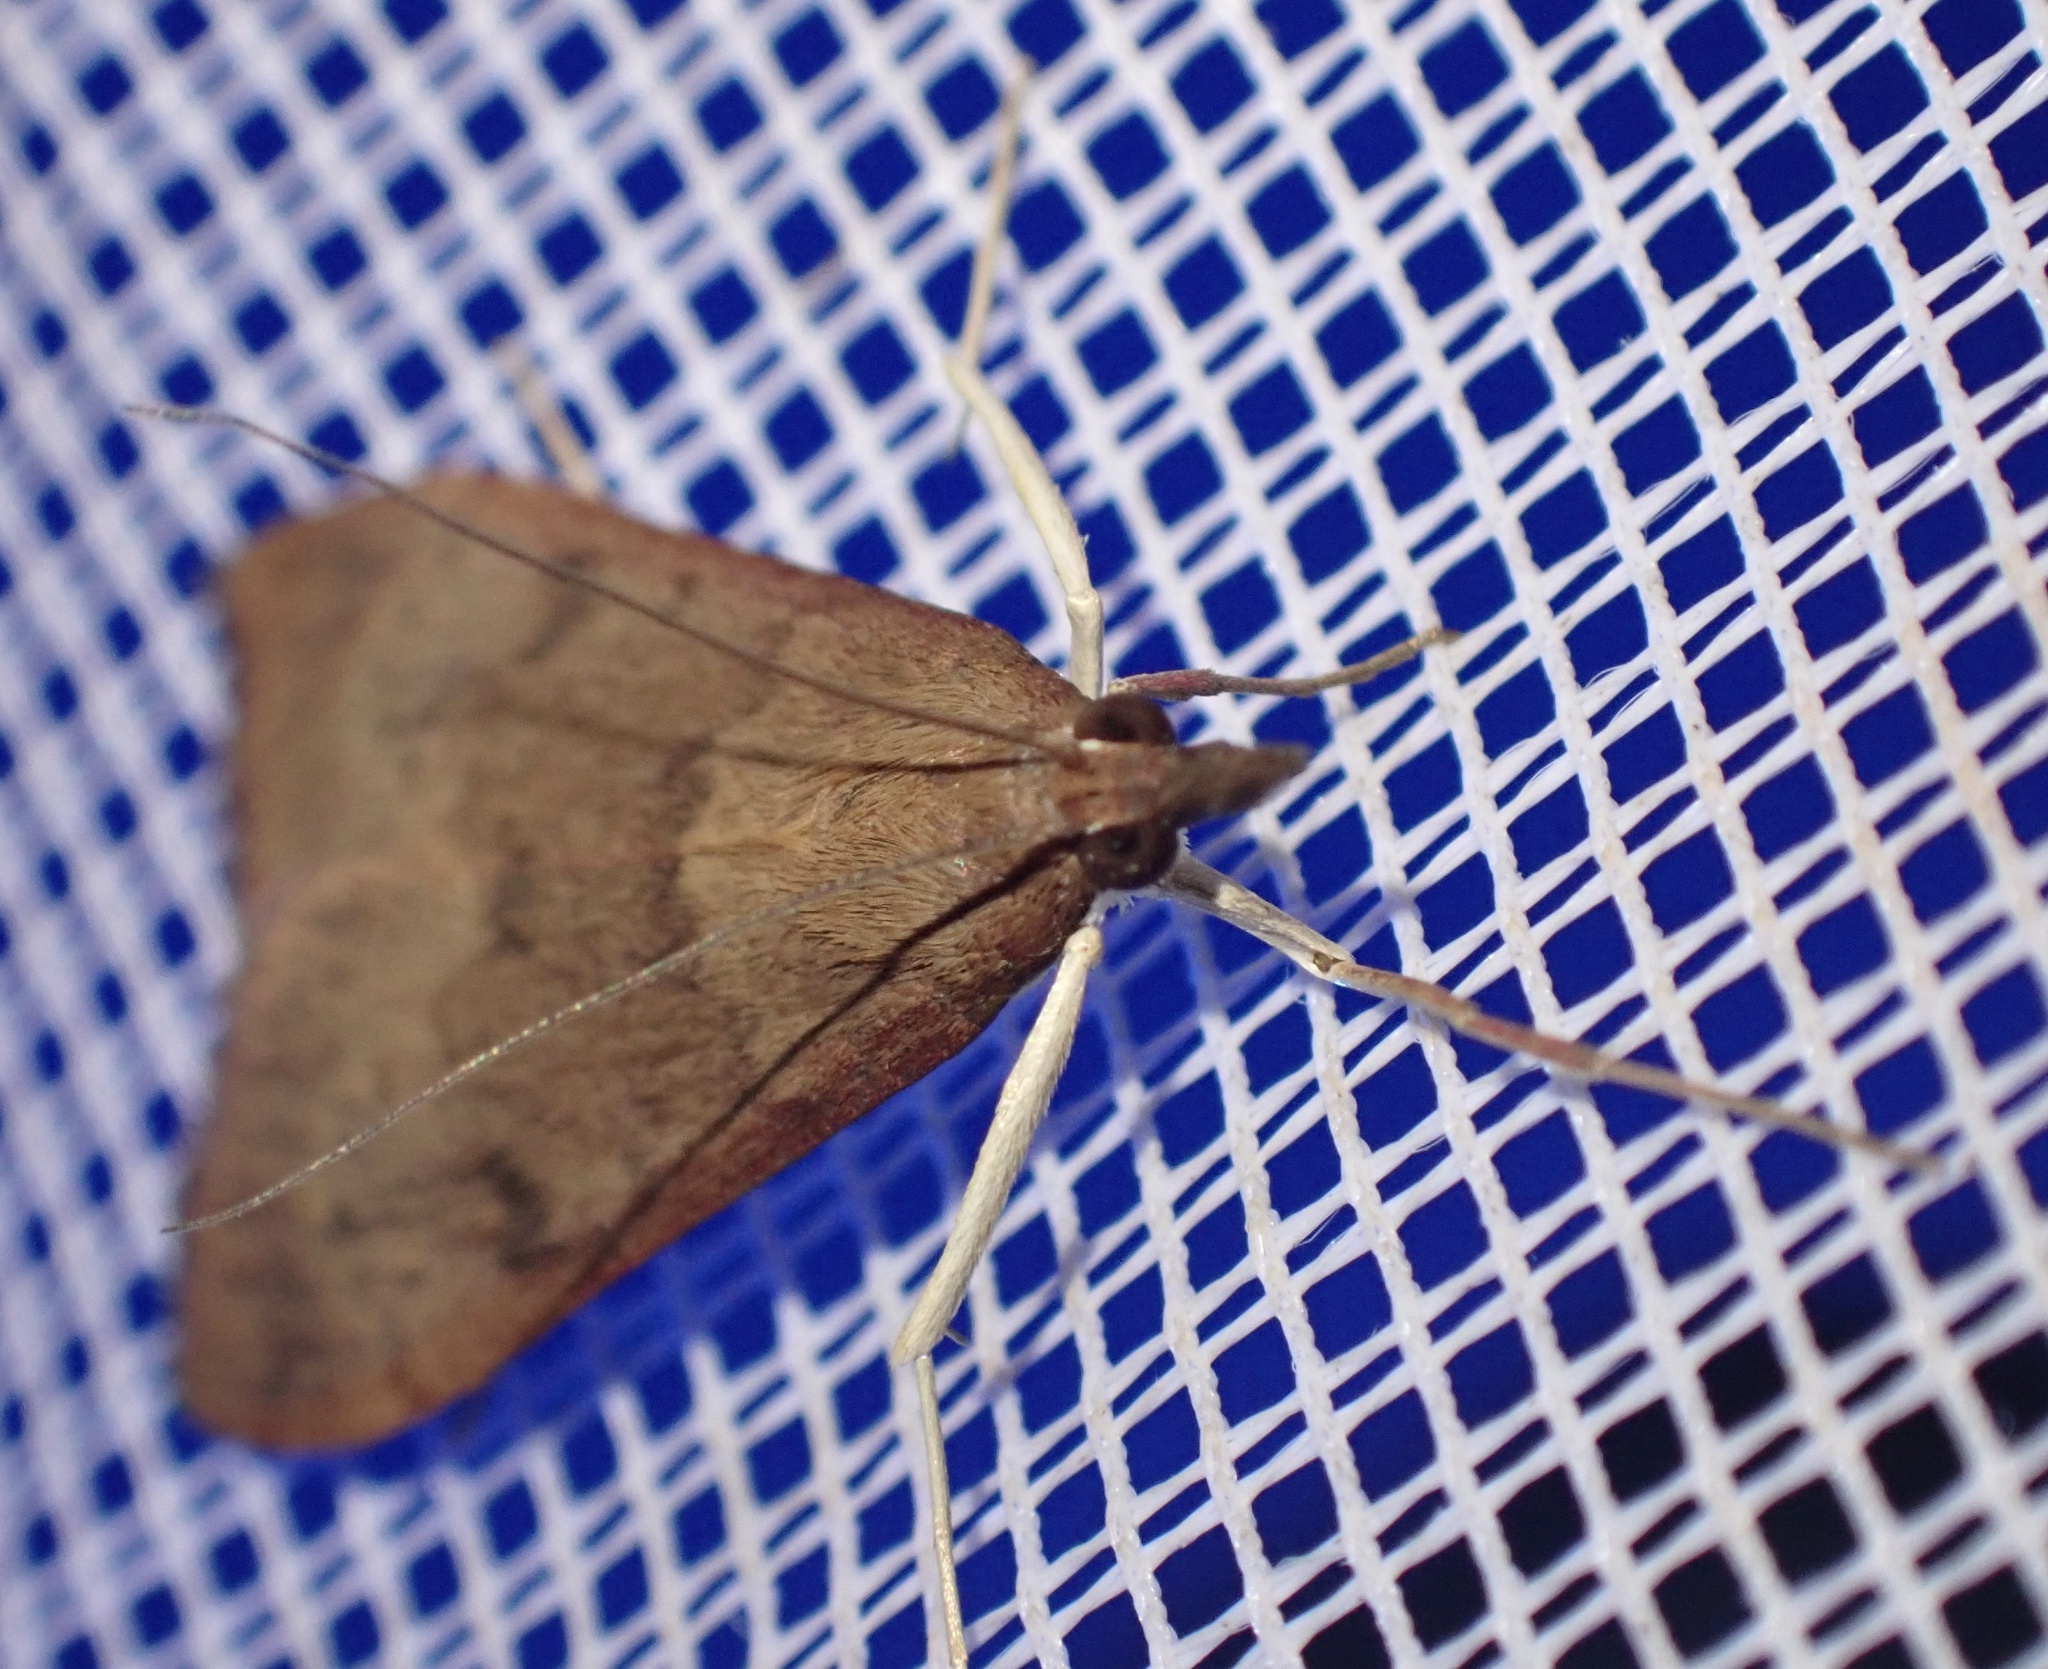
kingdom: Animalia
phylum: Arthropoda
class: Insecta
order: Lepidoptera
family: Crambidae
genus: Uresiphita
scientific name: Uresiphita gilvata
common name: Yellow-underwing pearl
